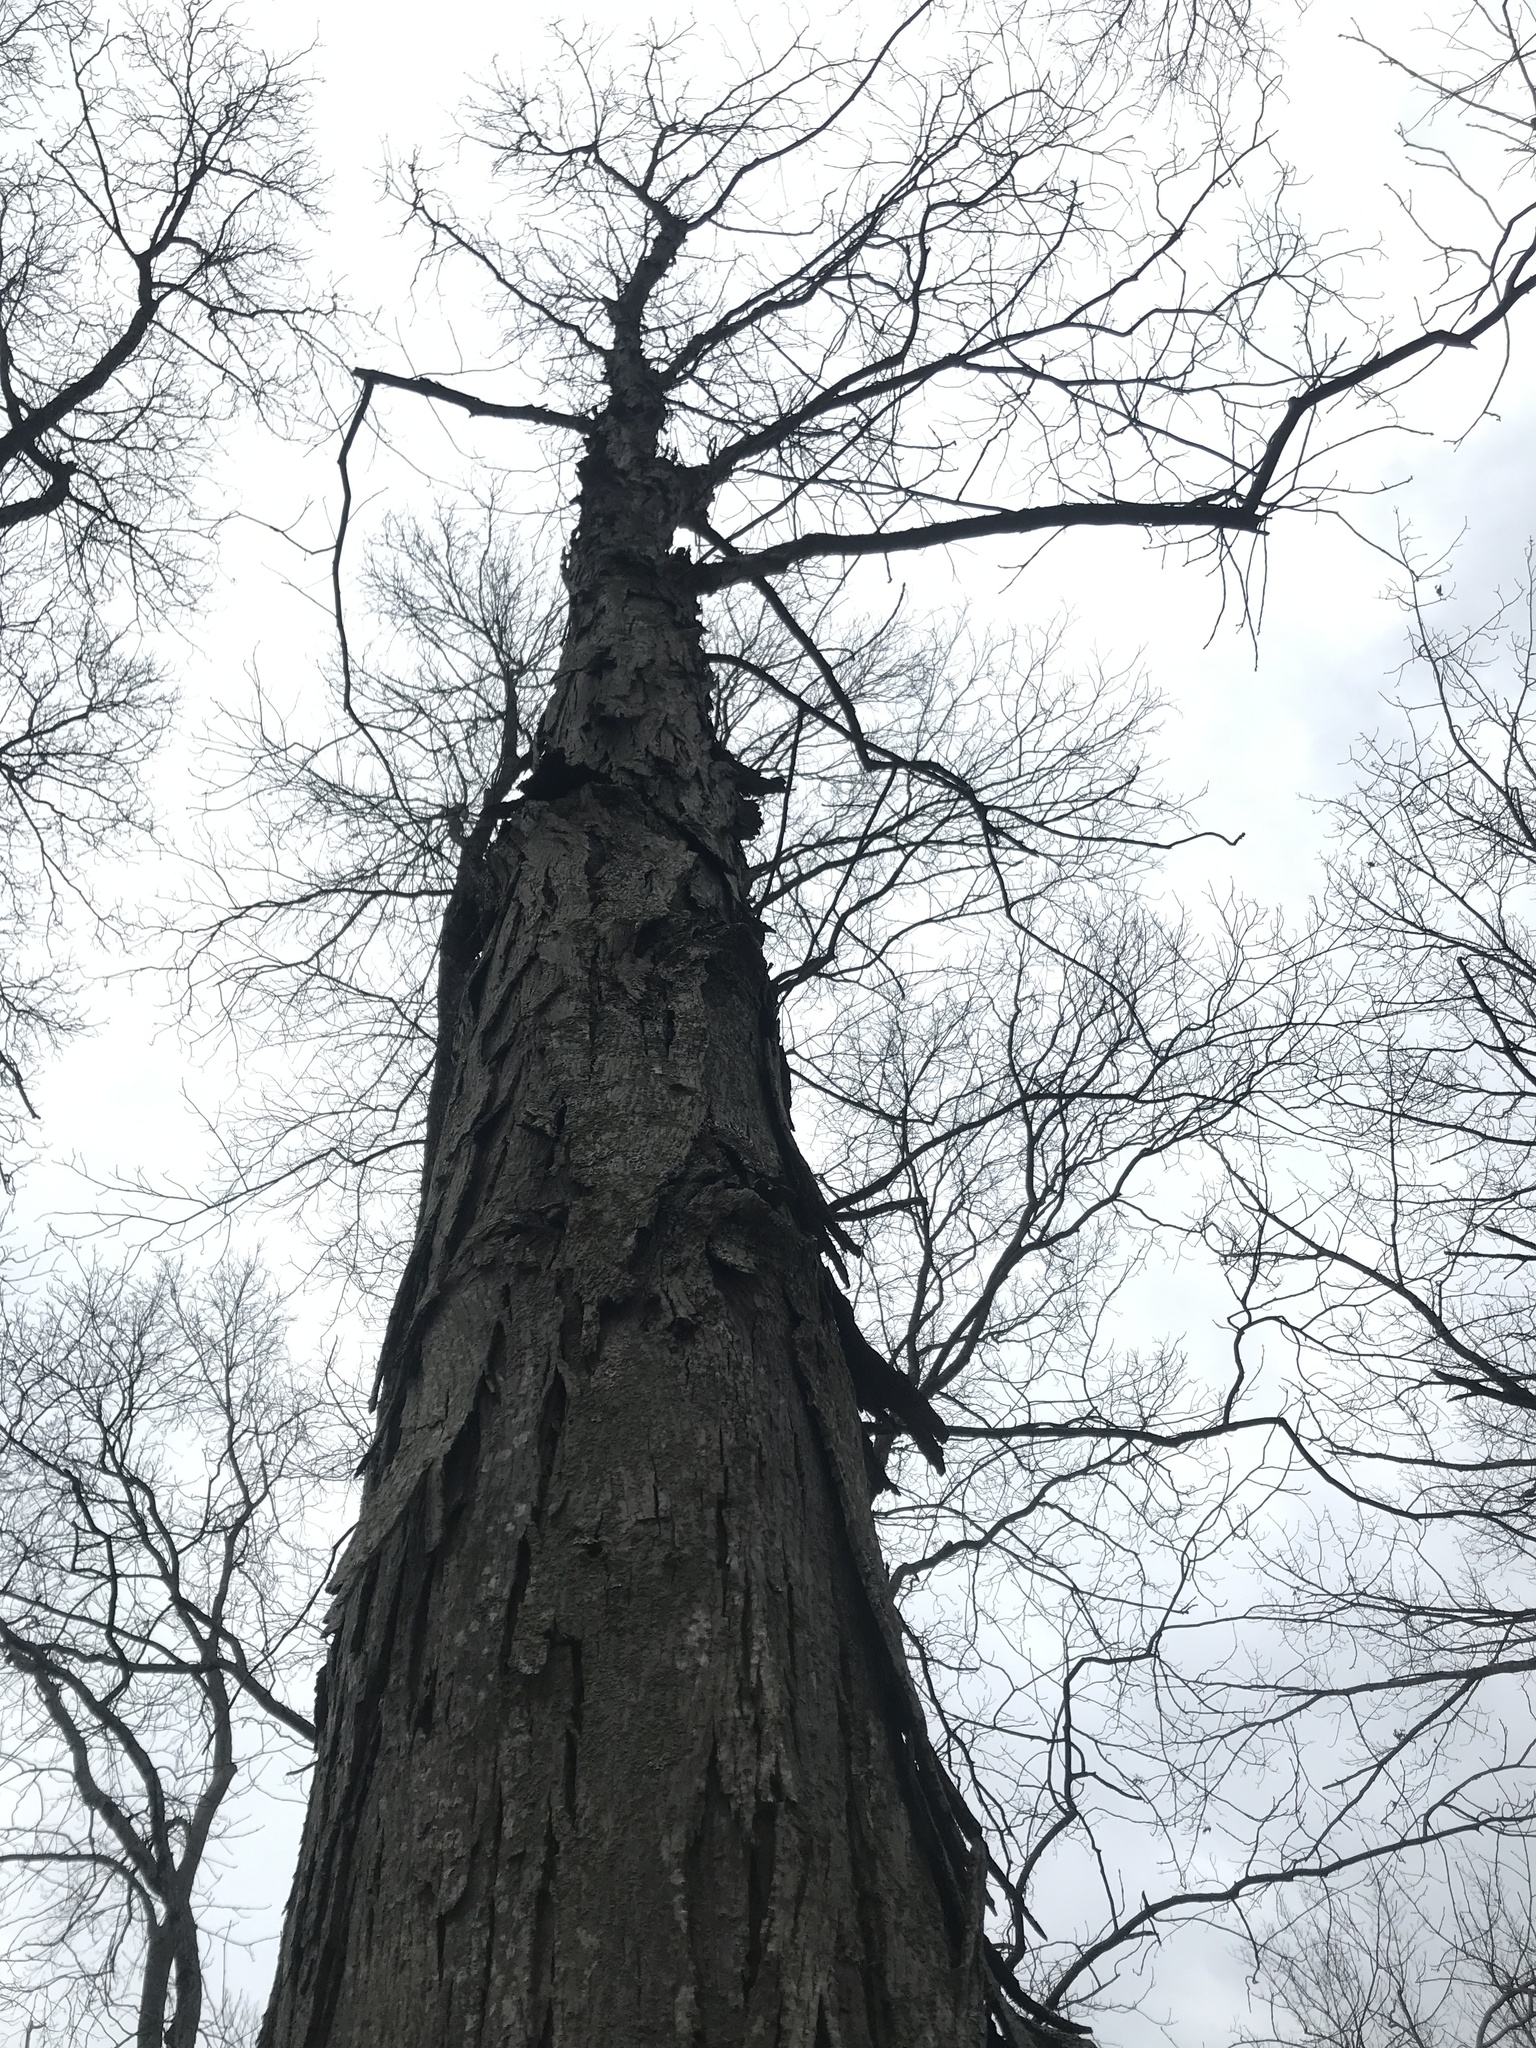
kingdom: Plantae
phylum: Tracheophyta
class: Magnoliopsida
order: Fagales
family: Juglandaceae
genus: Carya
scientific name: Carya ovata
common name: Shagbark hickory
